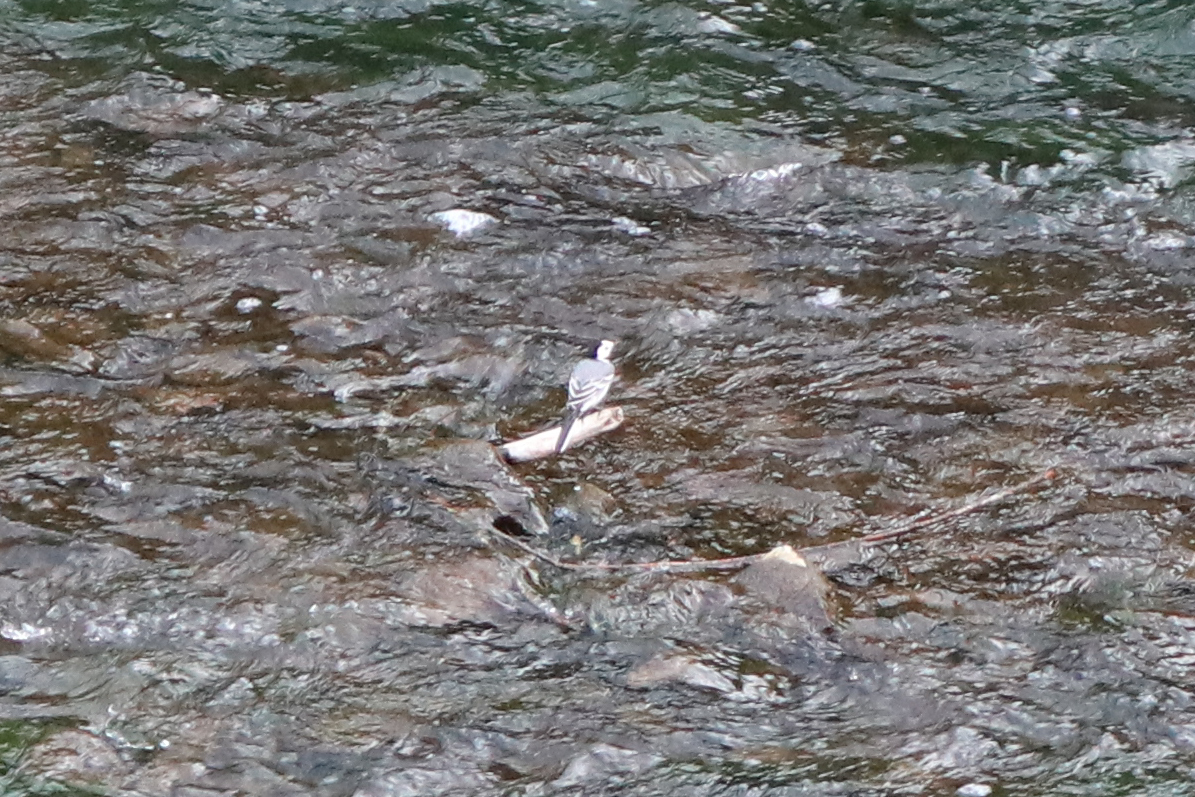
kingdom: Animalia
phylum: Chordata
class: Aves
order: Passeriformes
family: Motacillidae
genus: Motacilla
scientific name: Motacilla alba
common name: White wagtail
